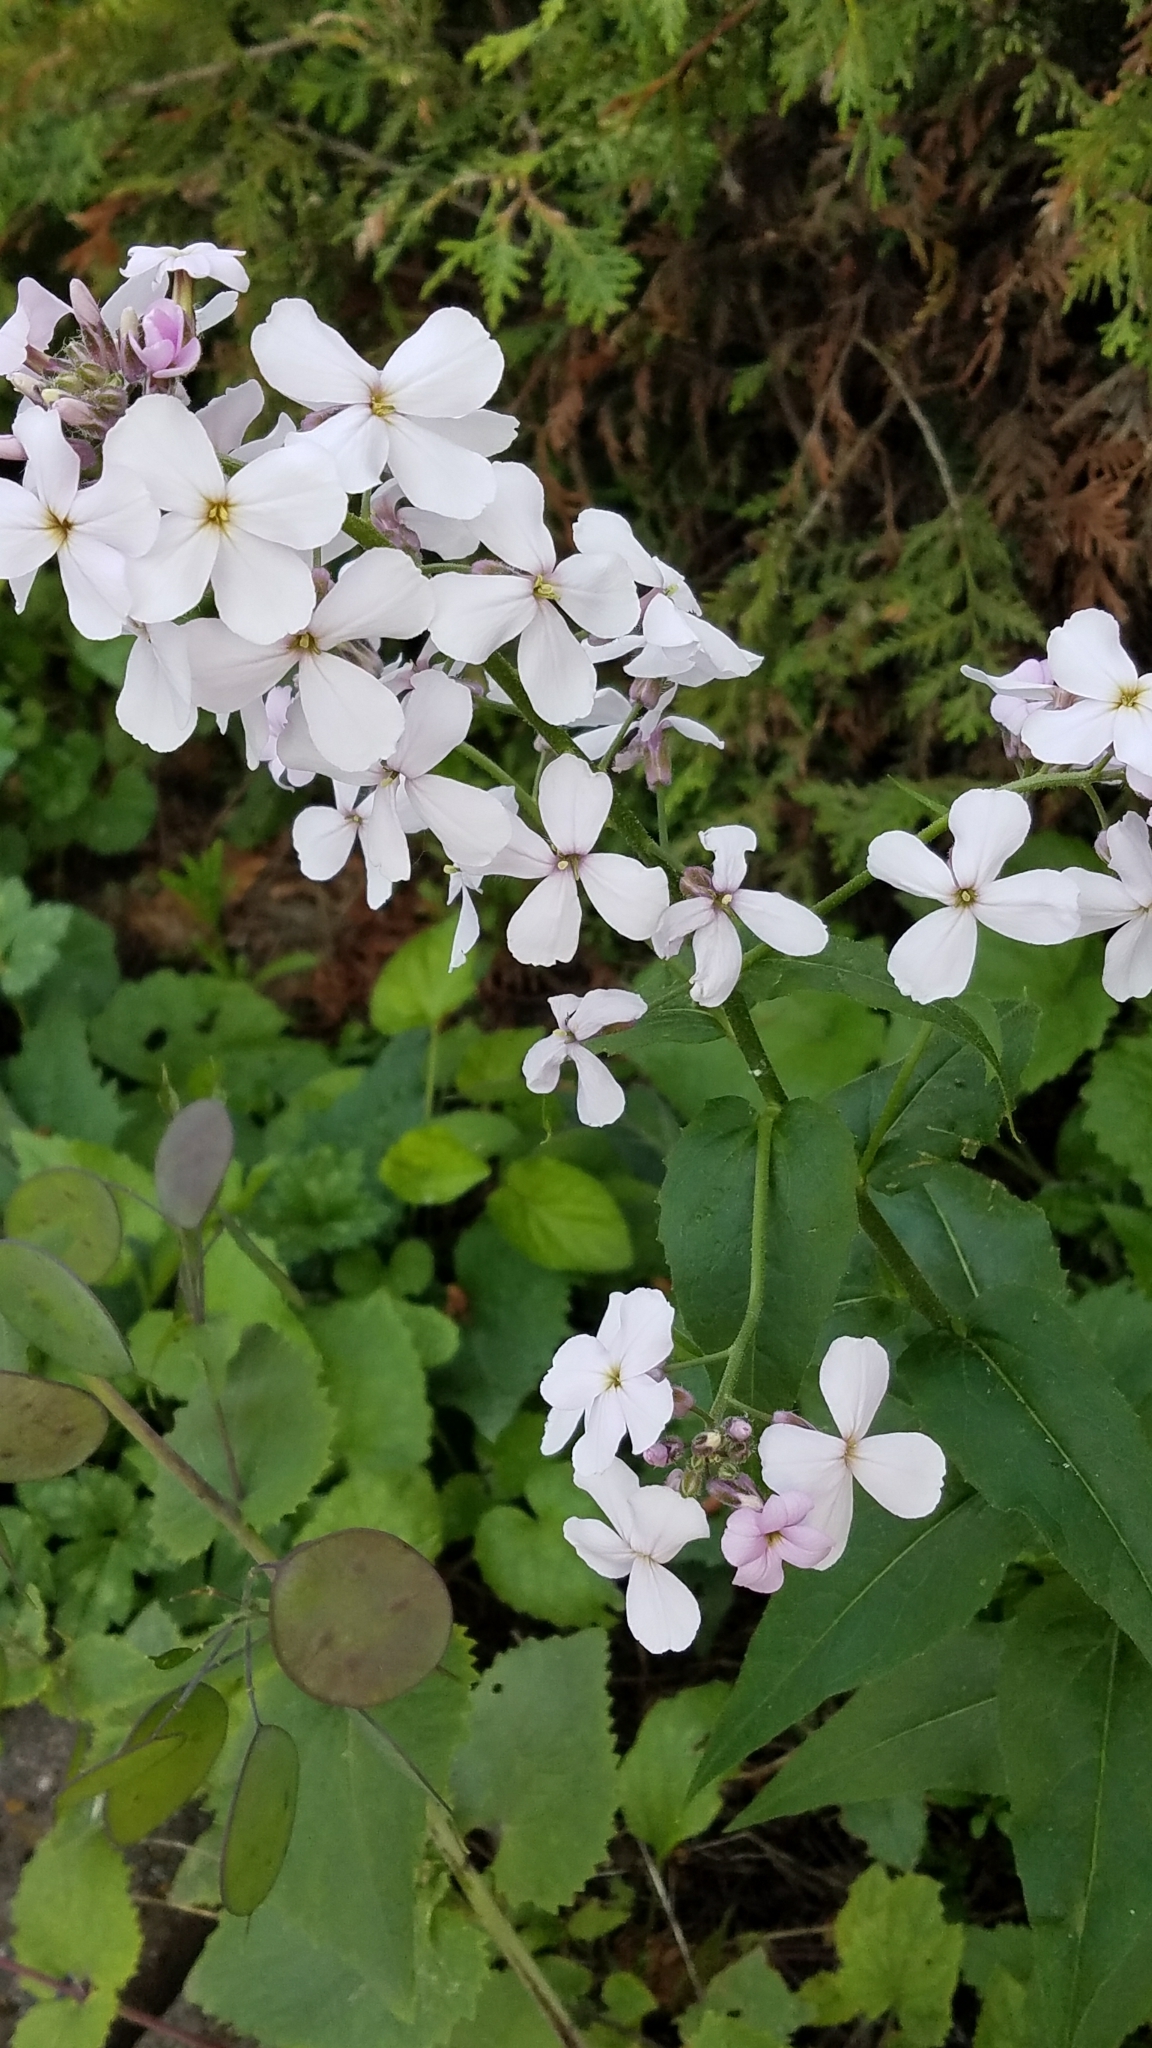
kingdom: Plantae
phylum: Tracheophyta
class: Magnoliopsida
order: Brassicales
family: Brassicaceae
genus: Hesperis
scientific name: Hesperis matronalis
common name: Dame's-violet
